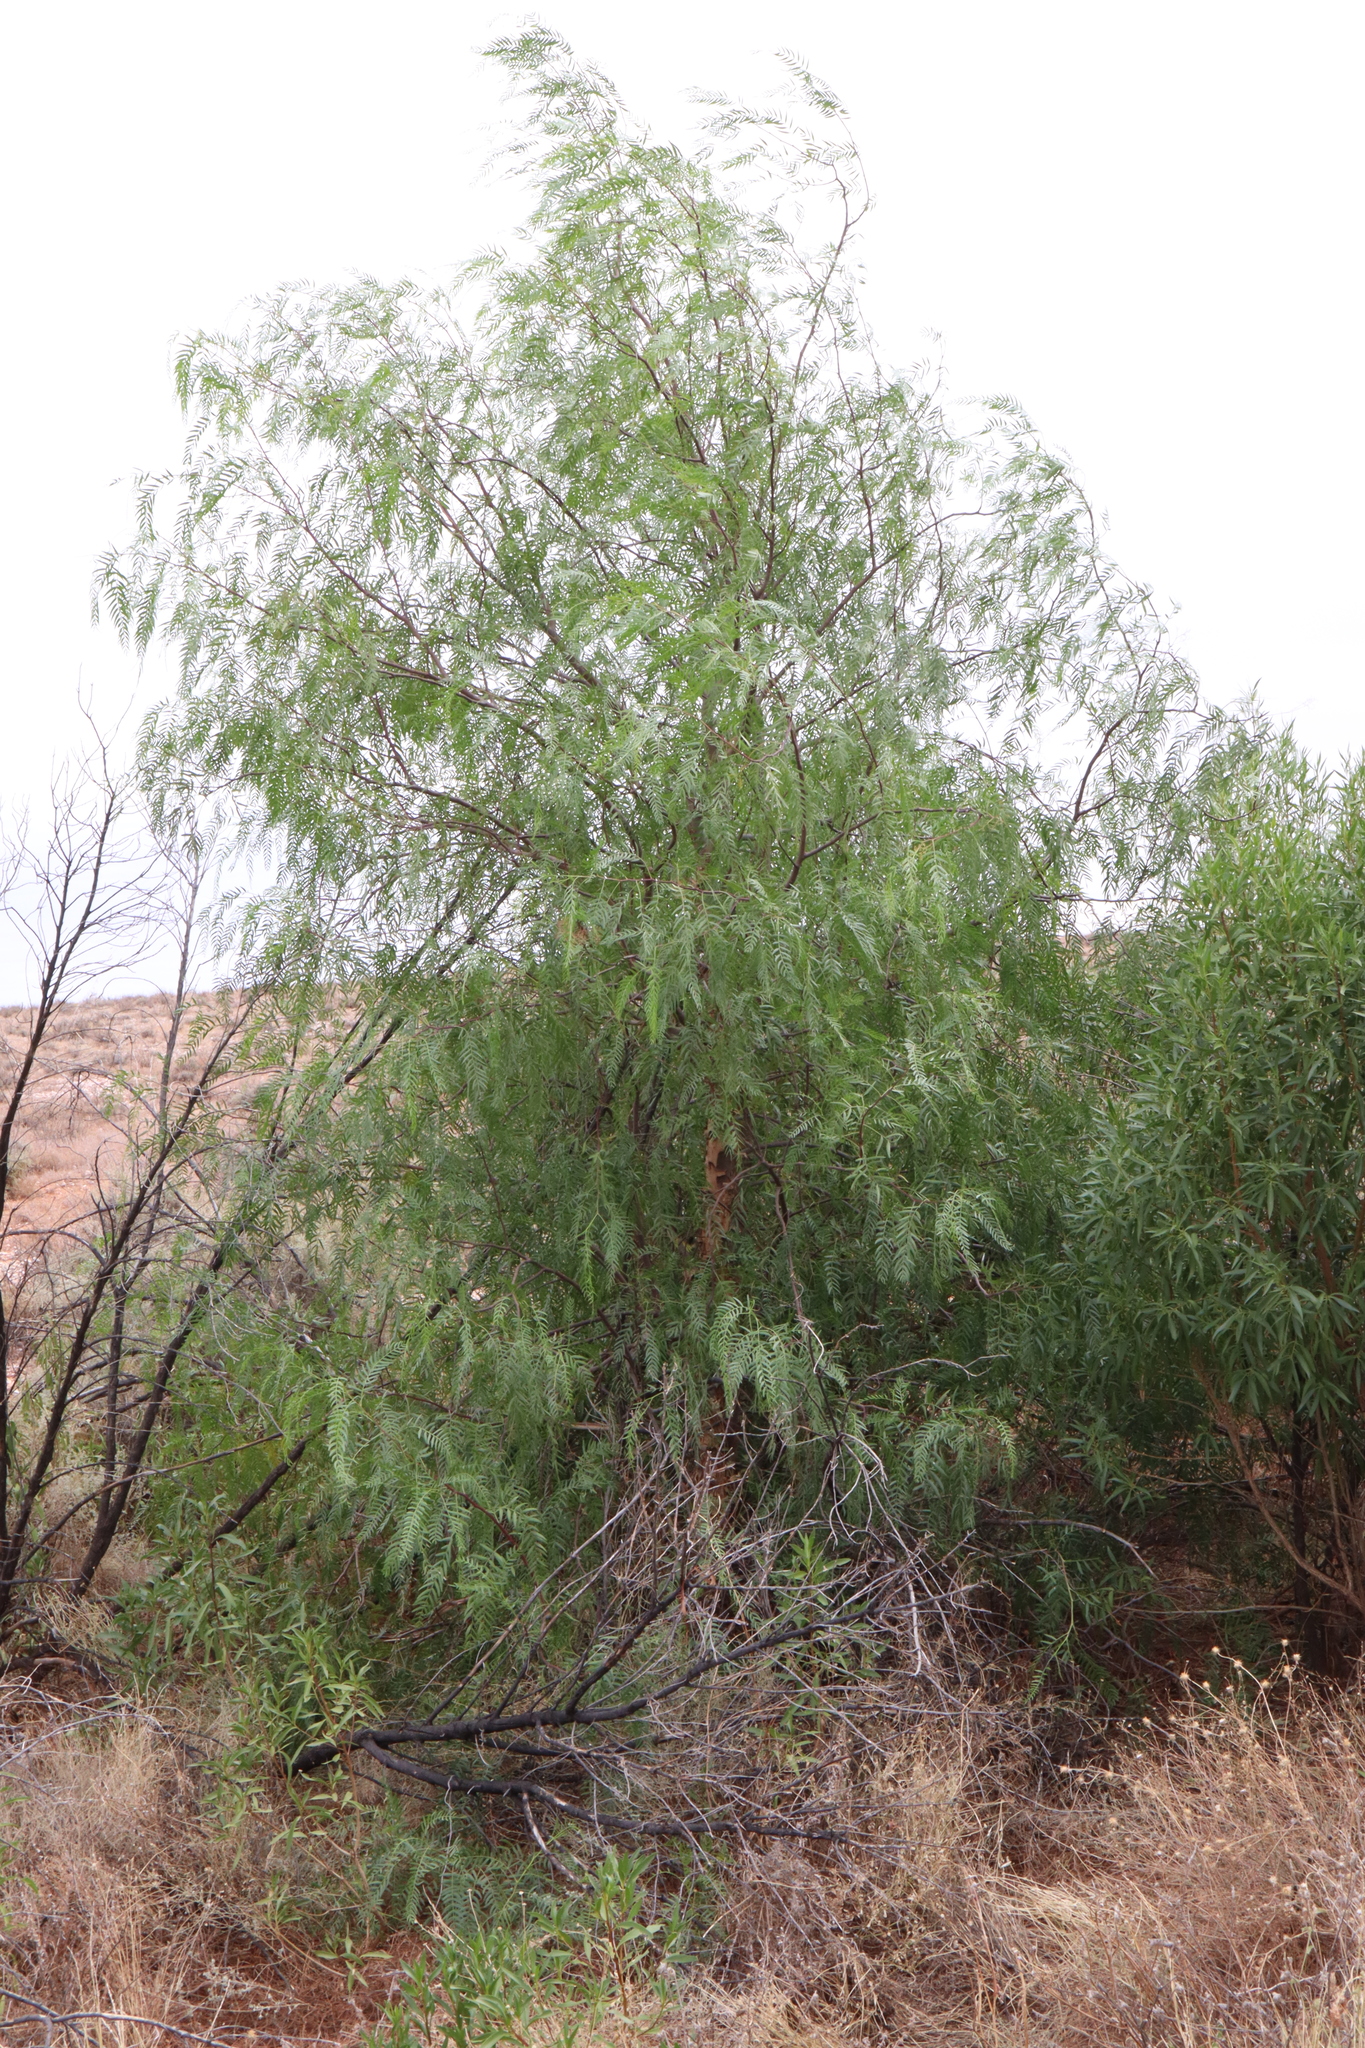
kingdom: Plantae
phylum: Tracheophyta
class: Magnoliopsida
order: Sapindales
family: Anacardiaceae
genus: Schinus
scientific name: Schinus molle
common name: Peruvian peppertree
